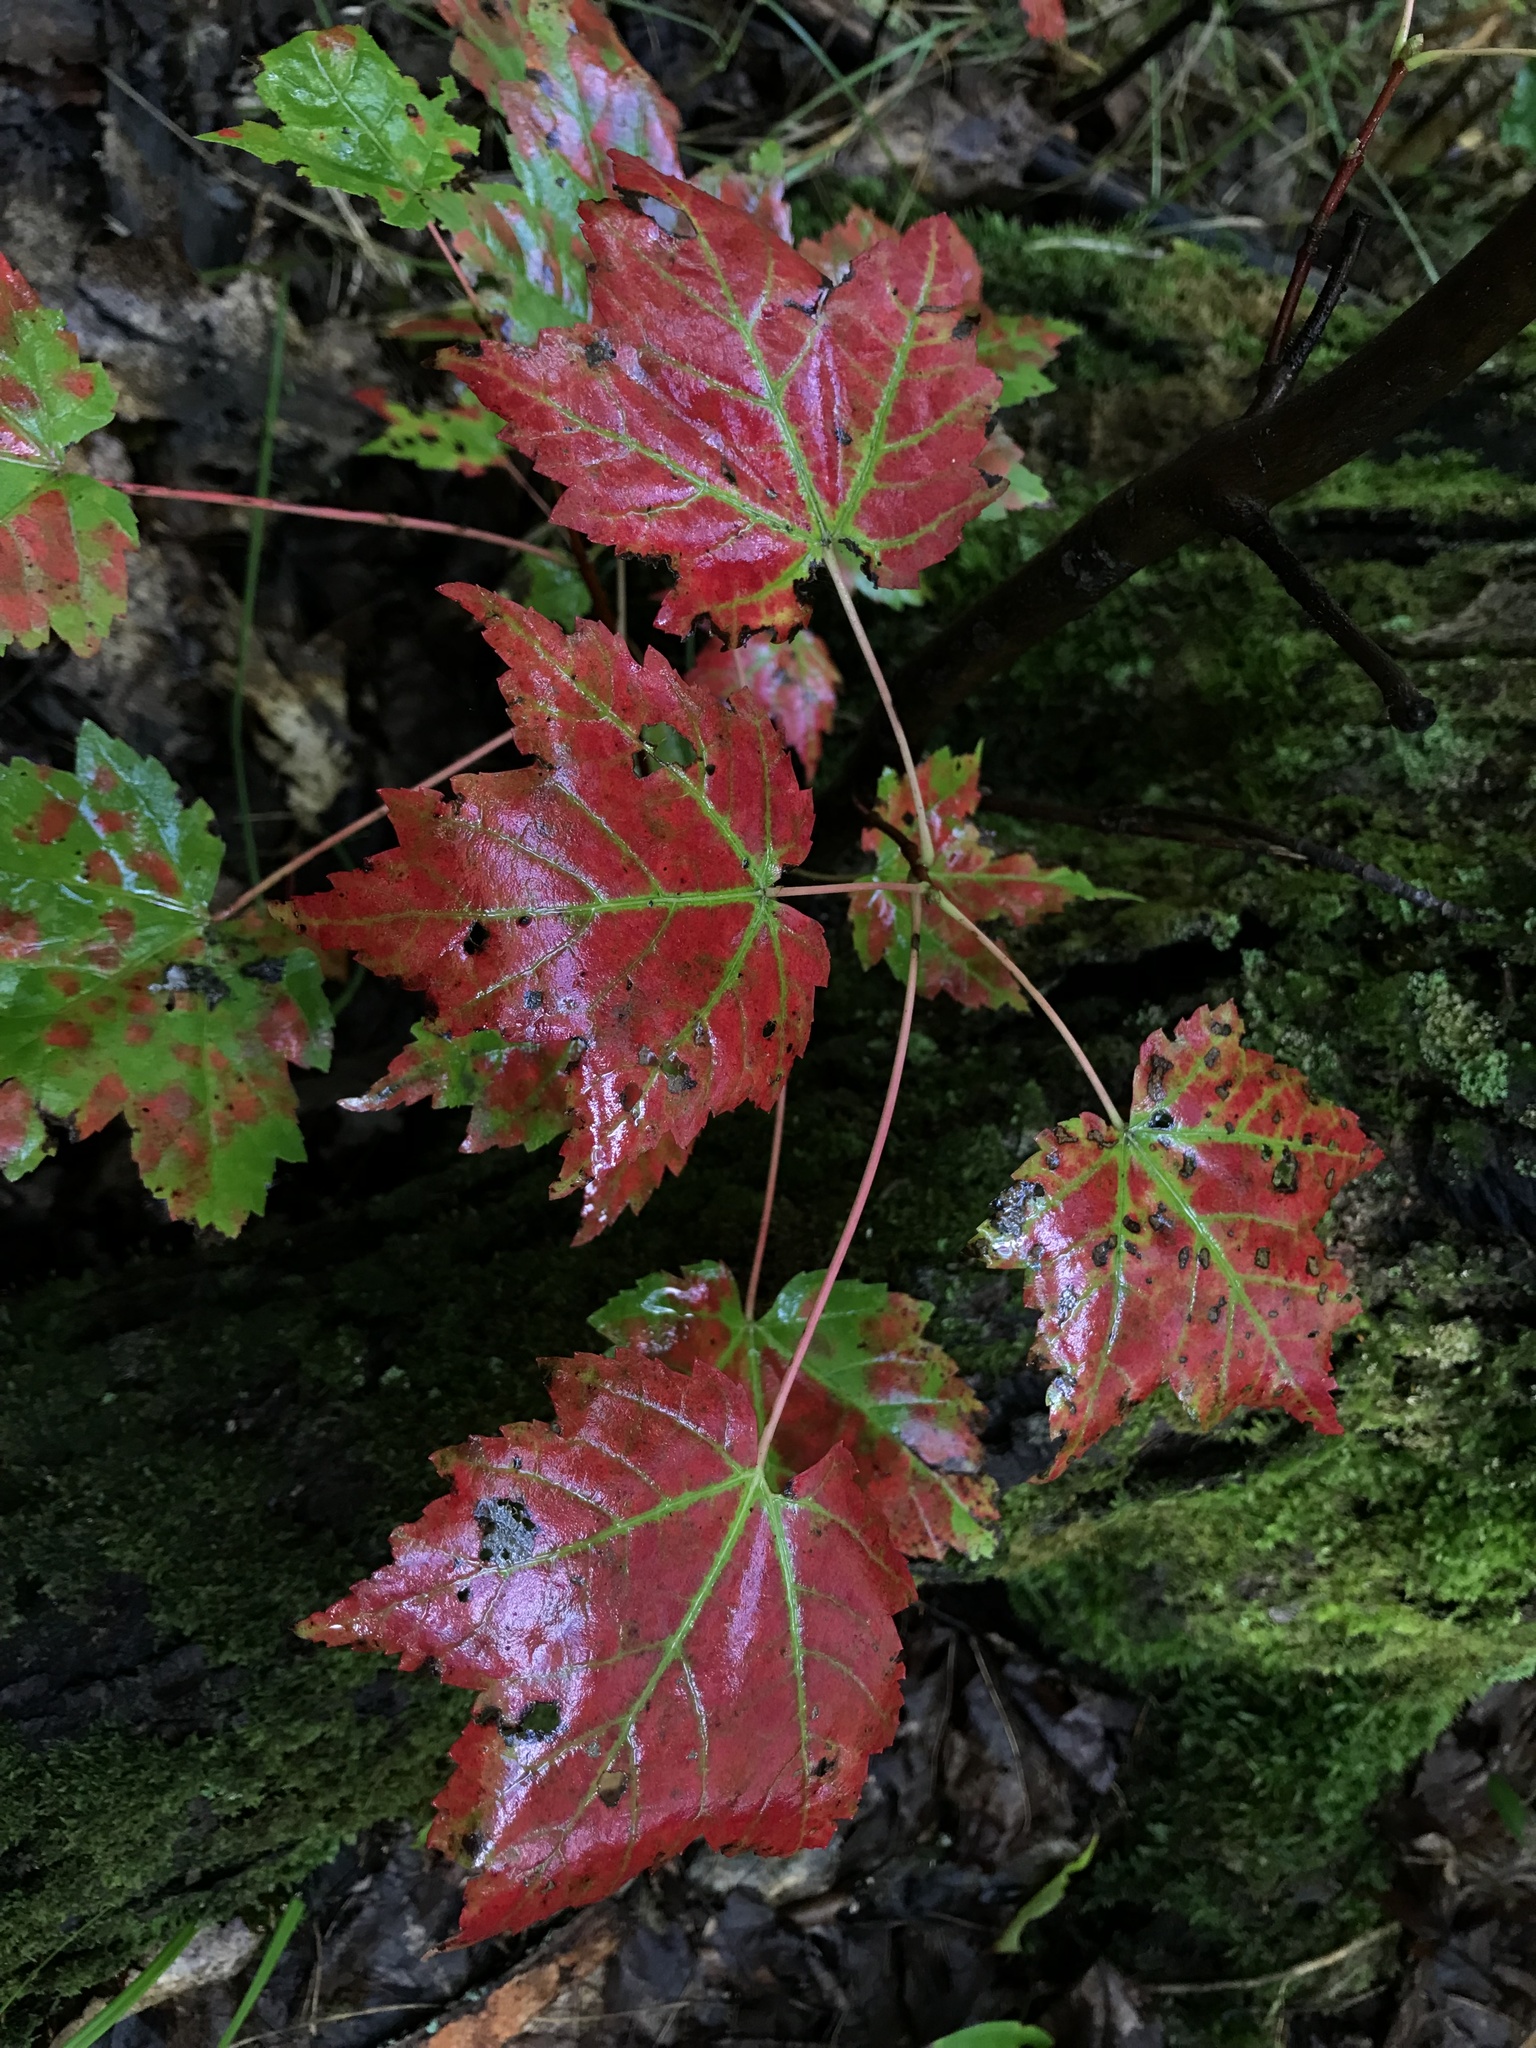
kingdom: Plantae
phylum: Tracheophyta
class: Magnoliopsida
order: Sapindales
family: Sapindaceae
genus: Acer
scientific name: Acer rubrum
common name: Red maple
